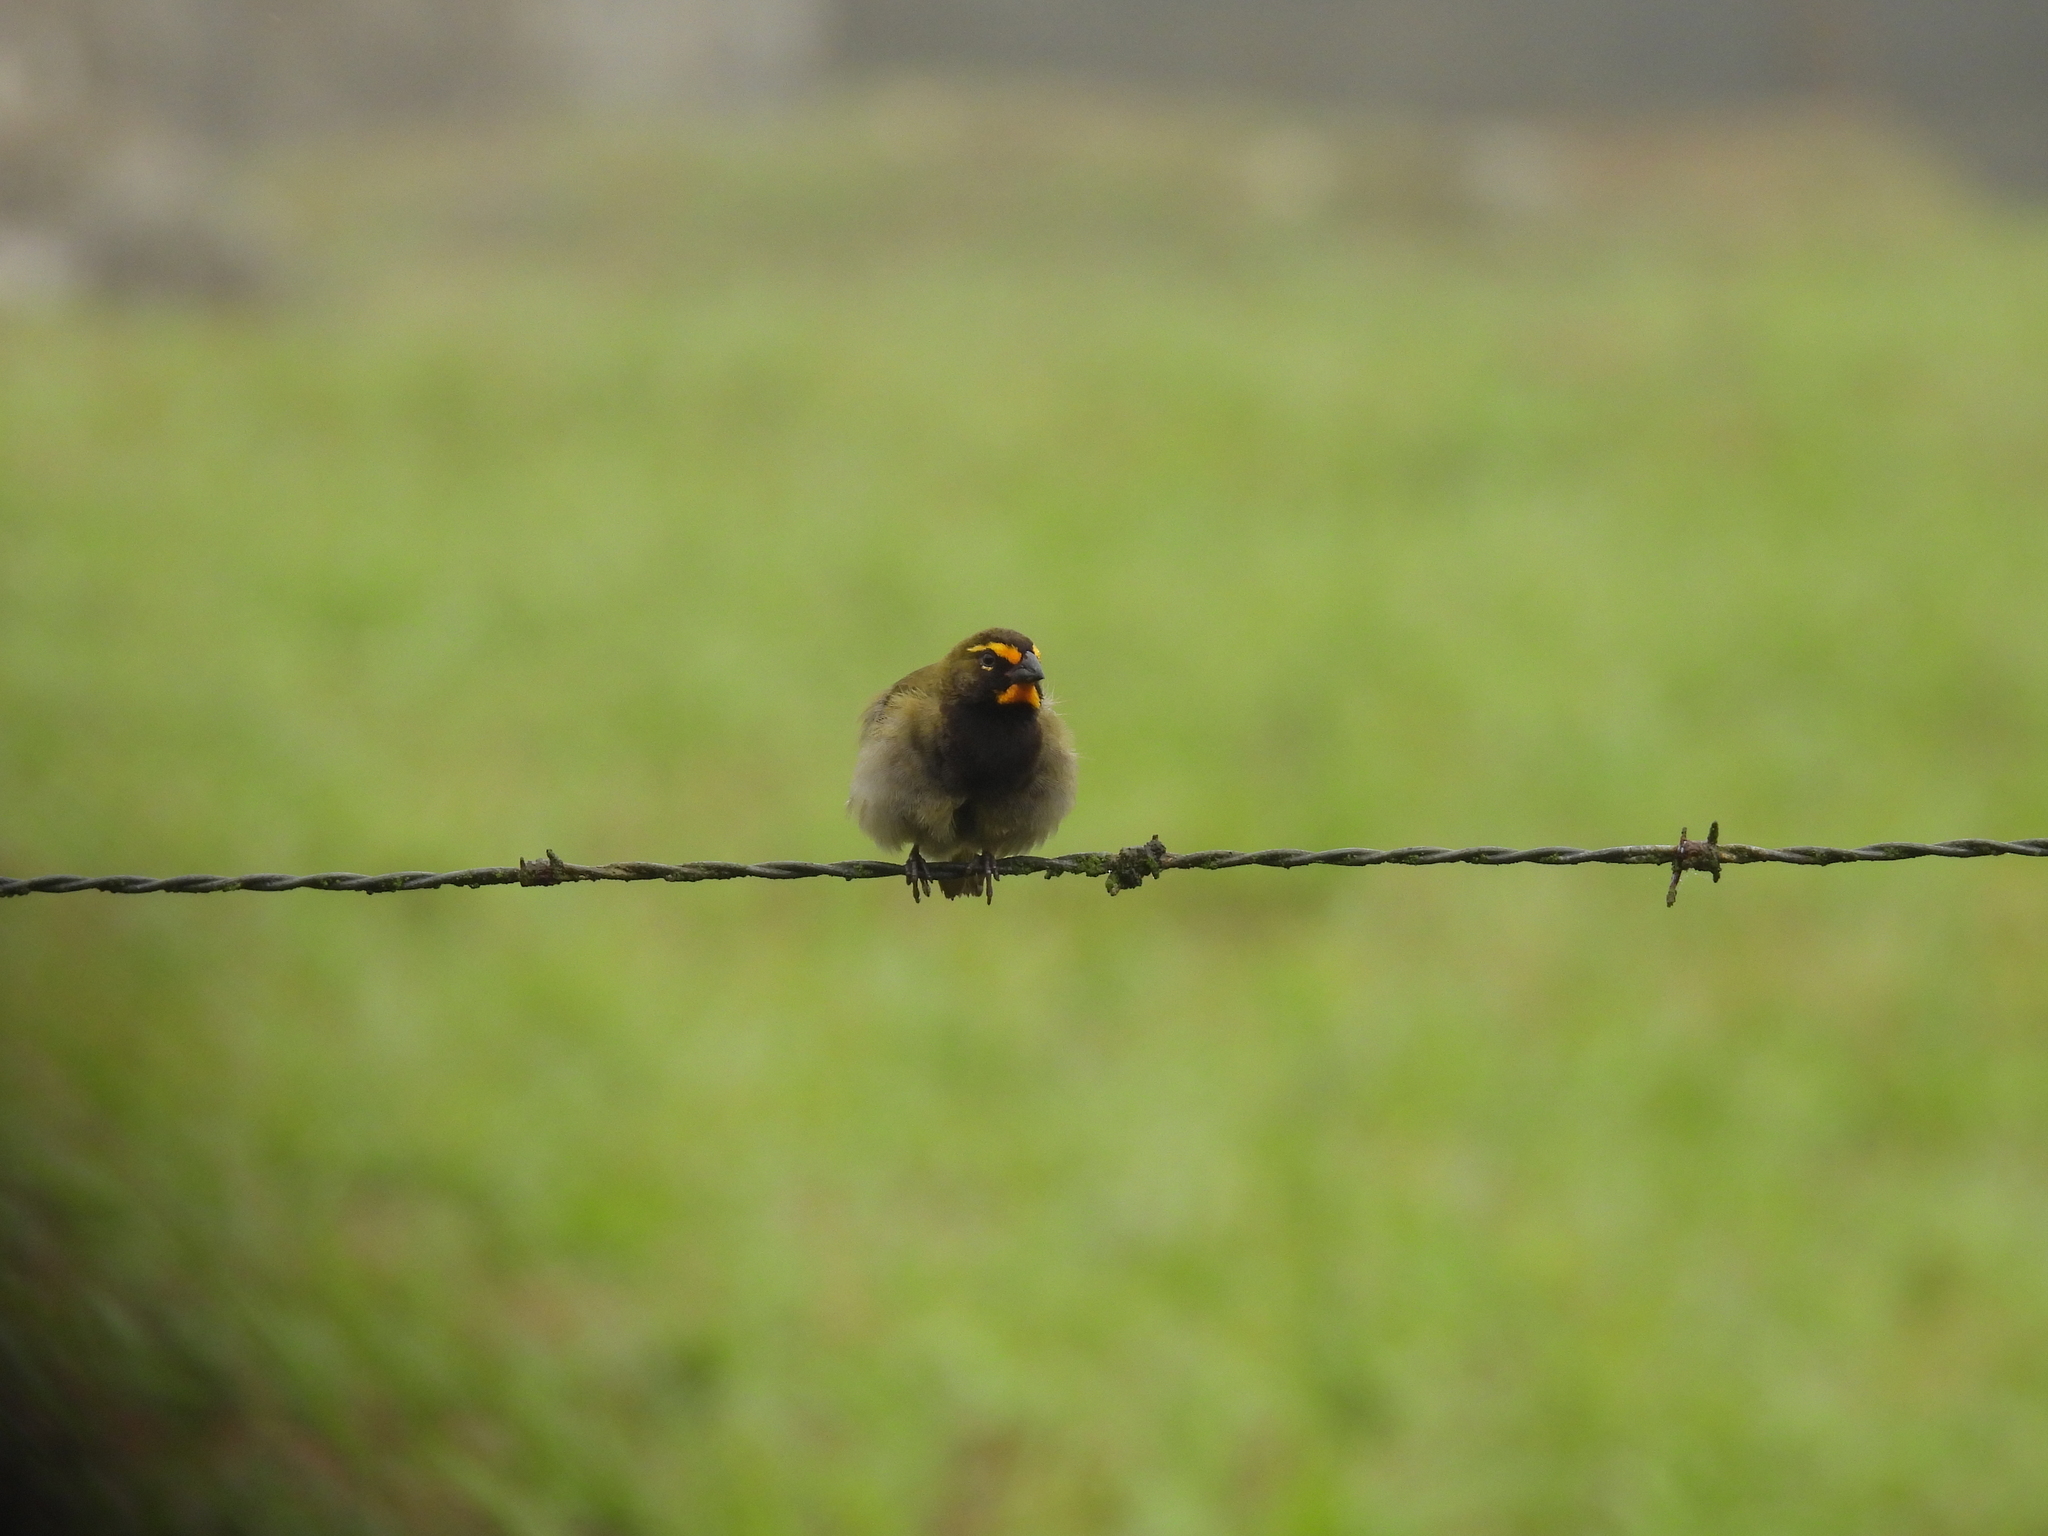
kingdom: Animalia
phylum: Chordata
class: Aves
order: Passeriformes
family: Thraupidae
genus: Tiaris
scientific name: Tiaris olivaceus
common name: Yellow-faced grassquit
